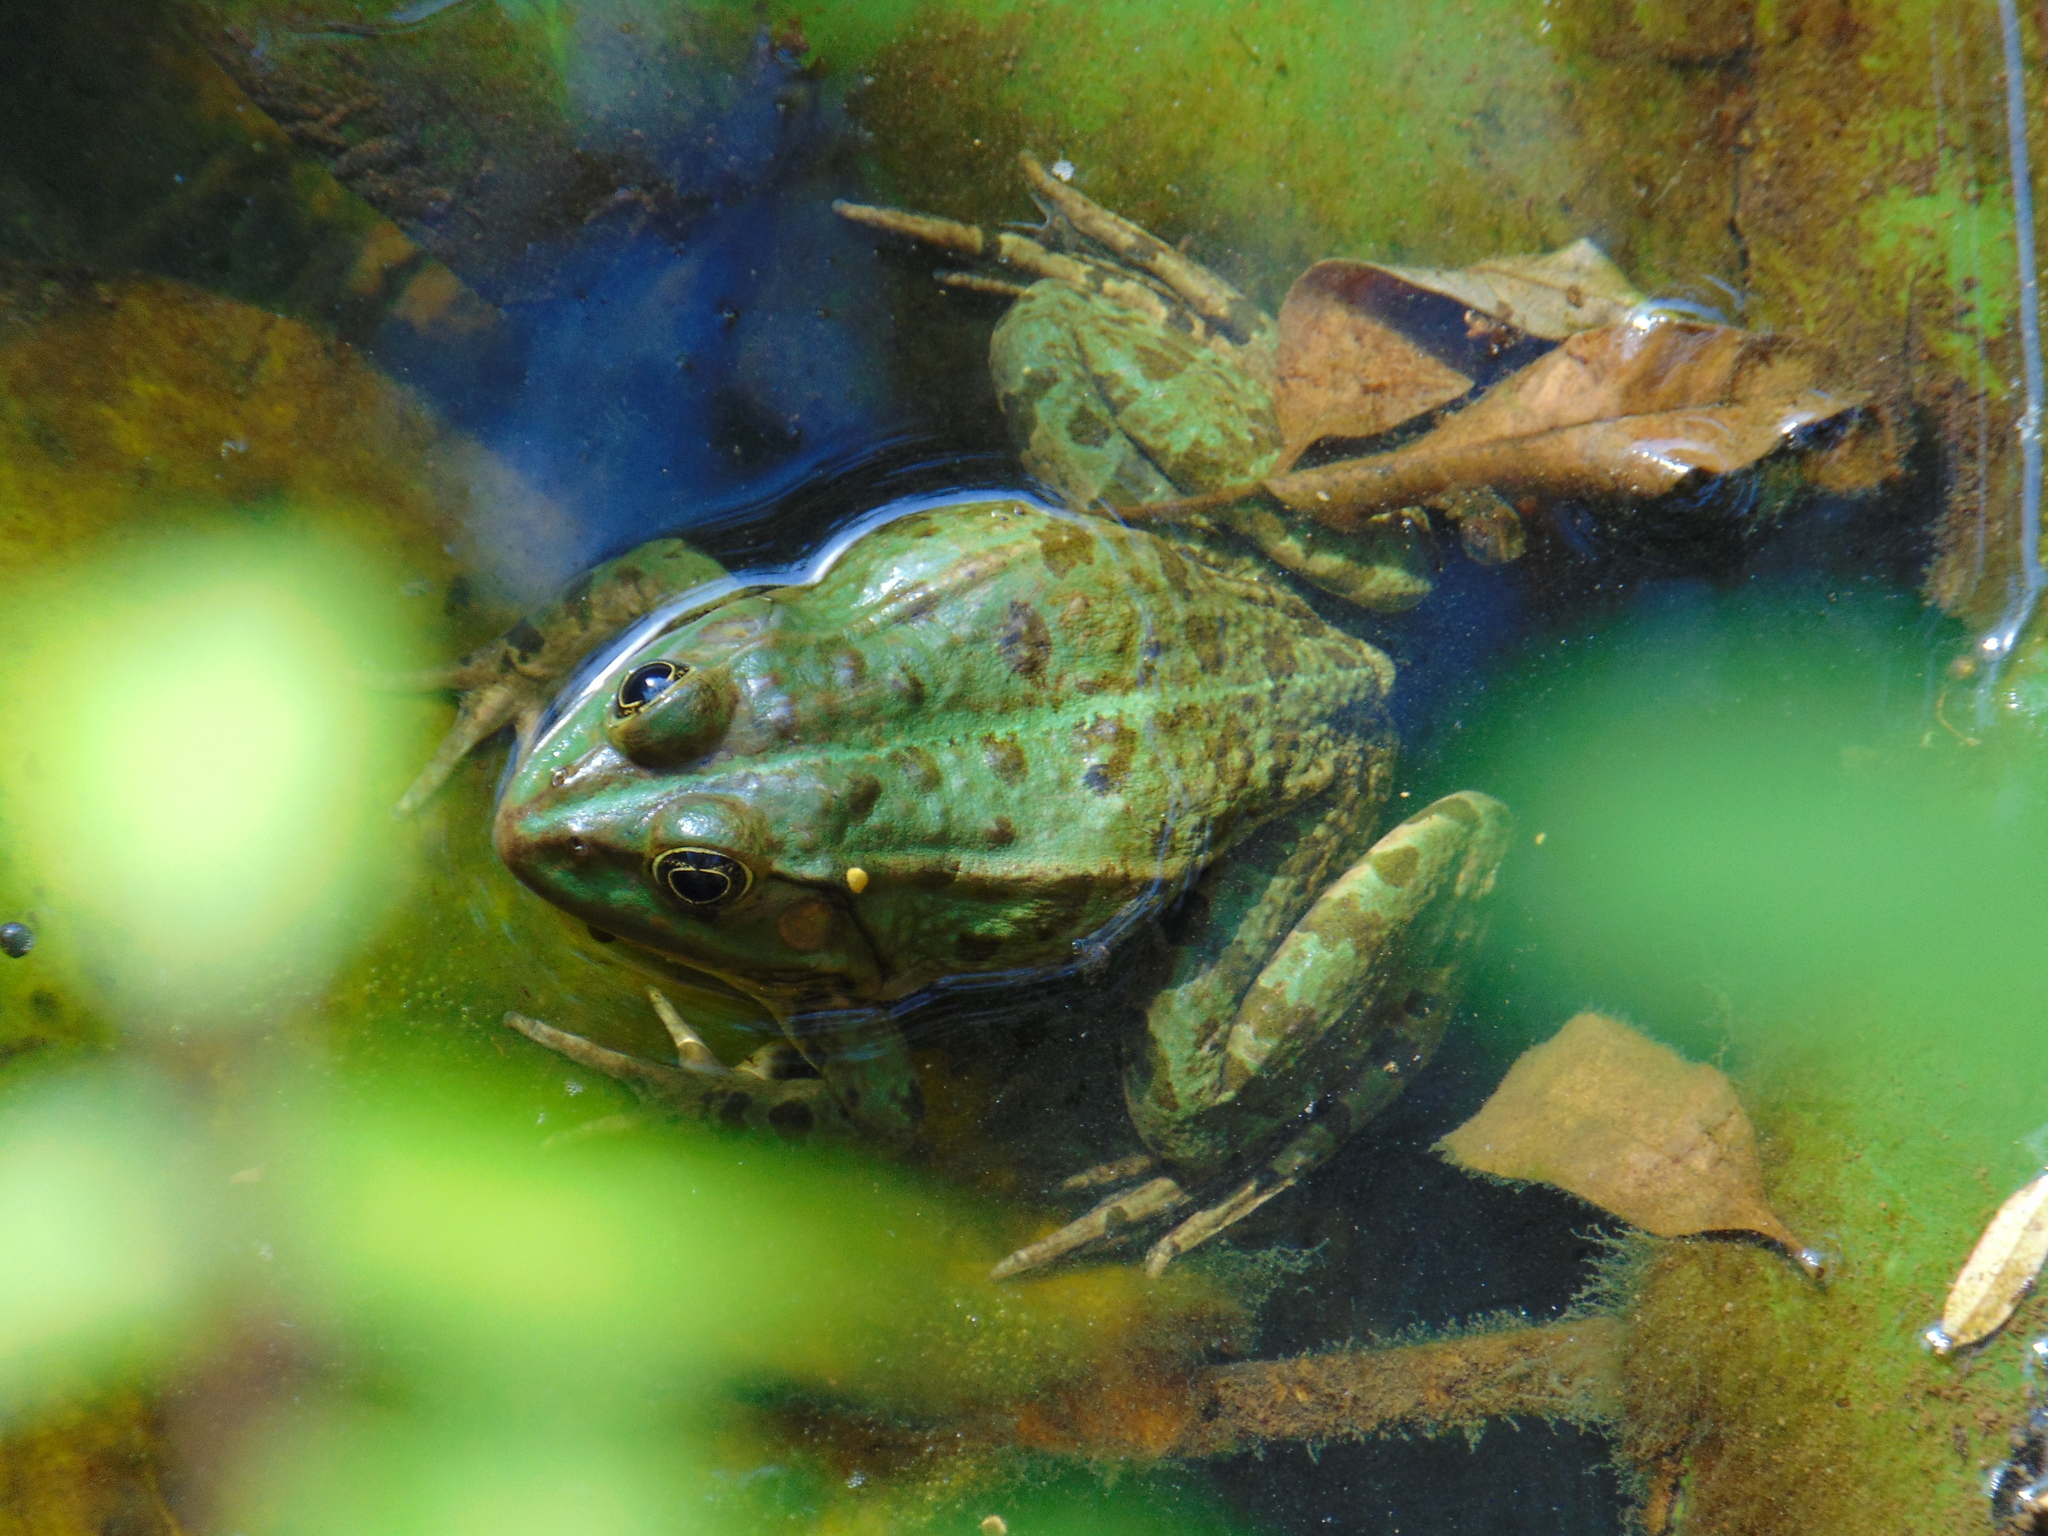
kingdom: Animalia
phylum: Chordata
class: Amphibia
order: Anura
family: Ranidae
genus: Pelophylax
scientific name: Pelophylax kurtmuelleri
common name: Balkan water frog
